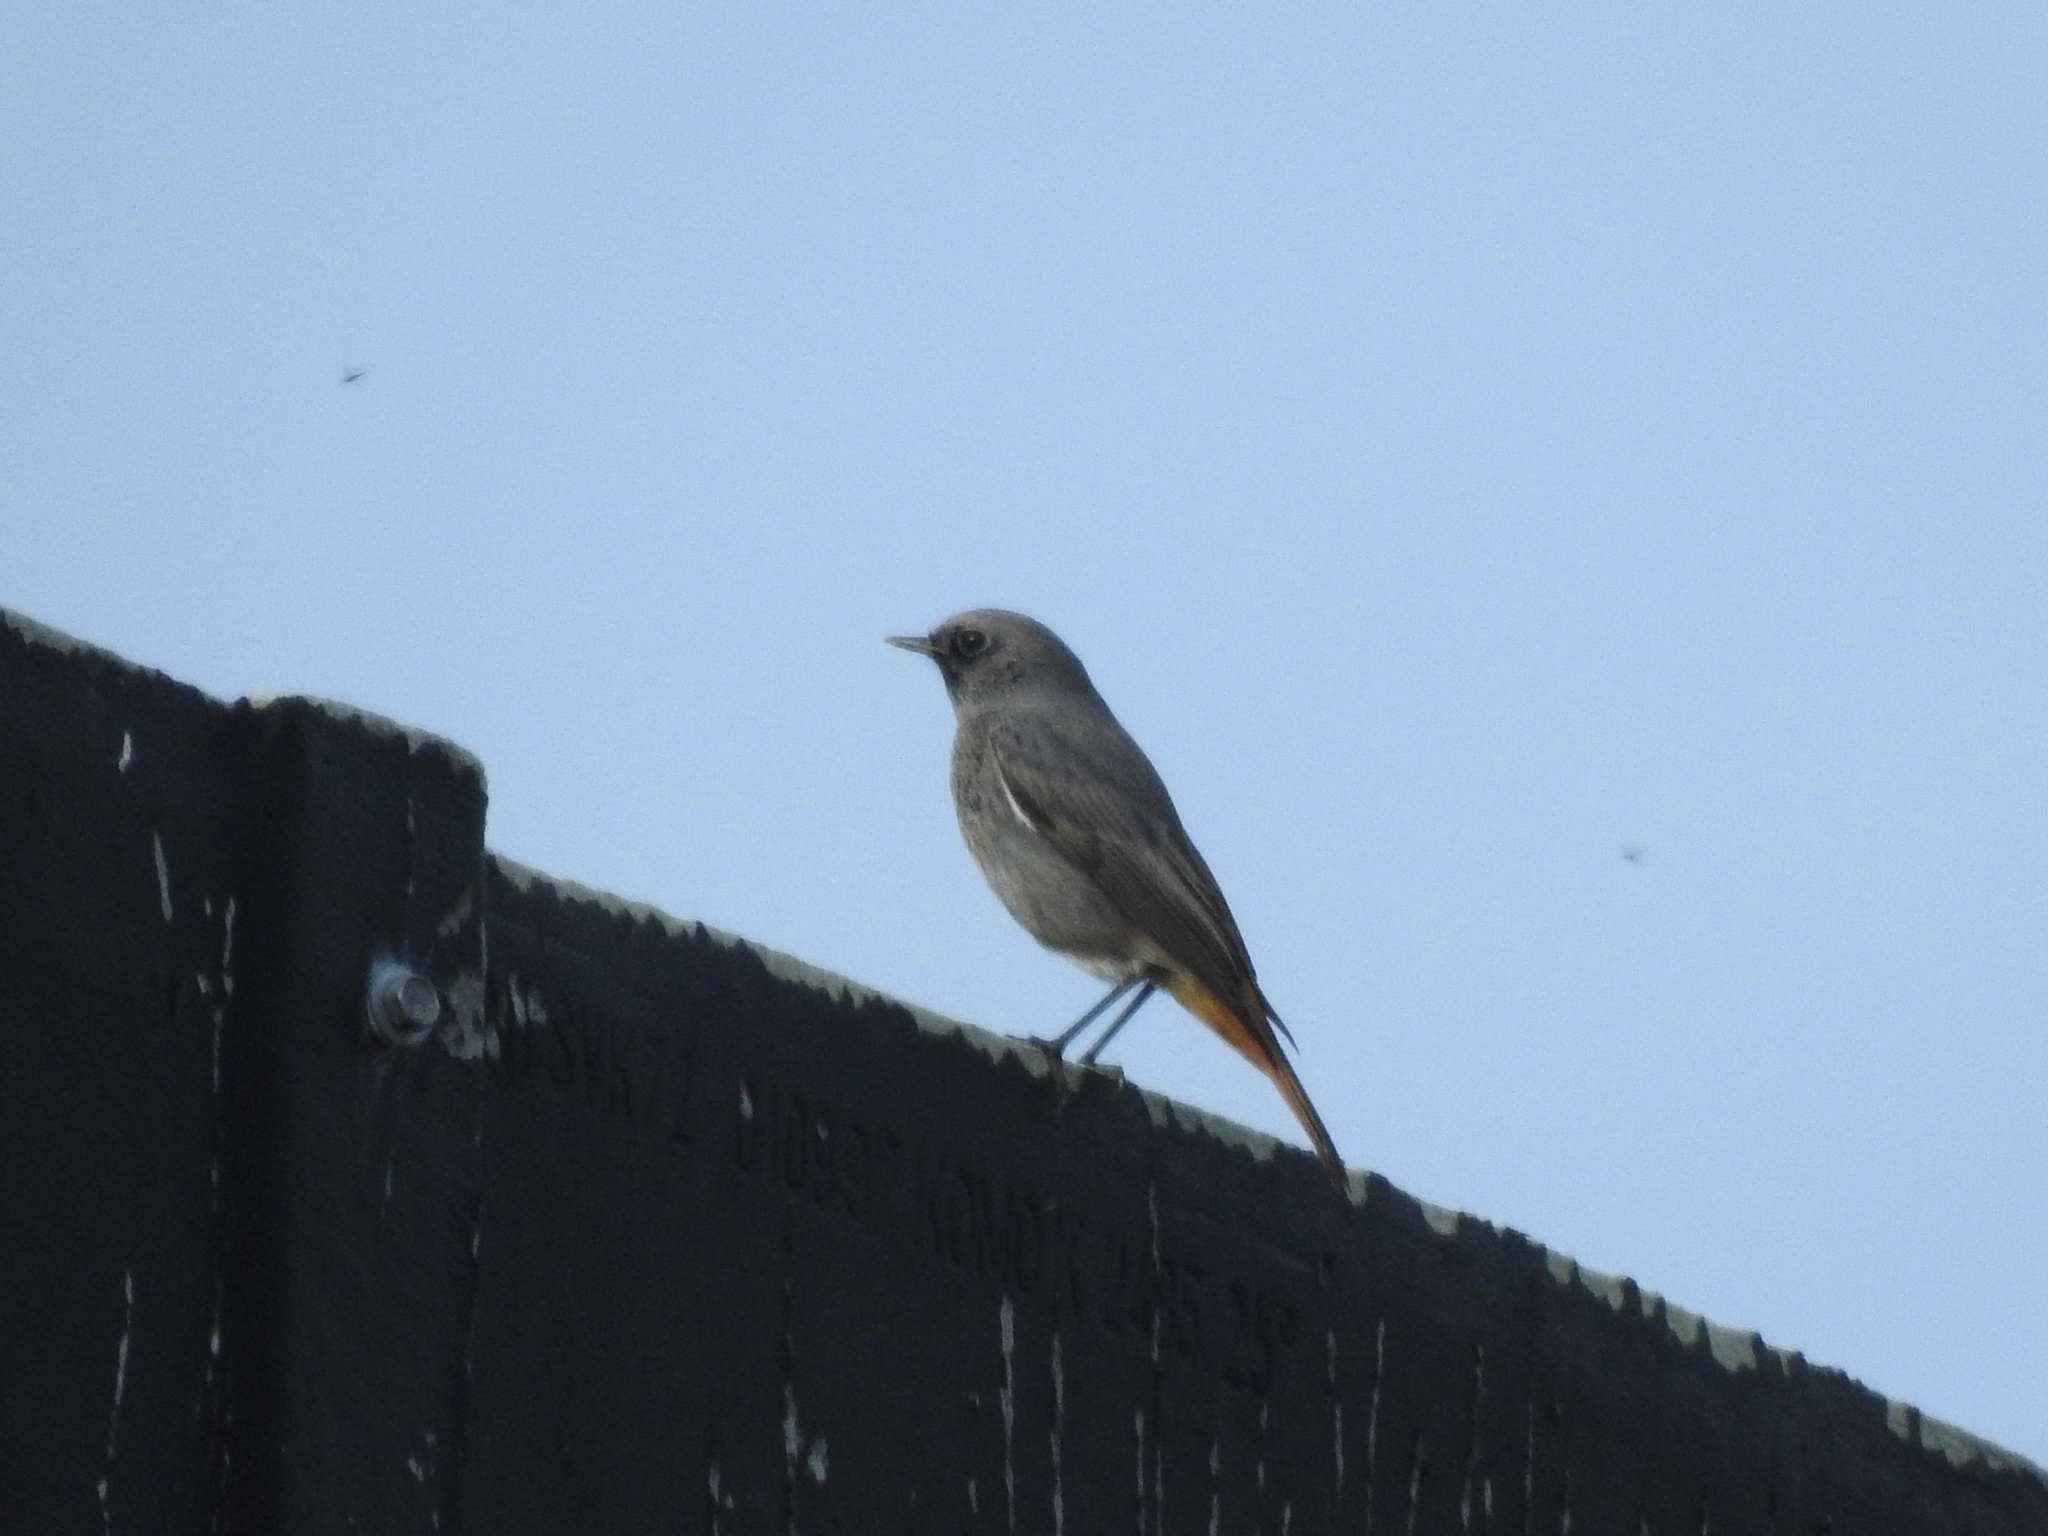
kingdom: Animalia
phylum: Chordata
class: Aves
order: Passeriformes
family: Muscicapidae
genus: Phoenicurus
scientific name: Phoenicurus ochruros
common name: Black redstart
